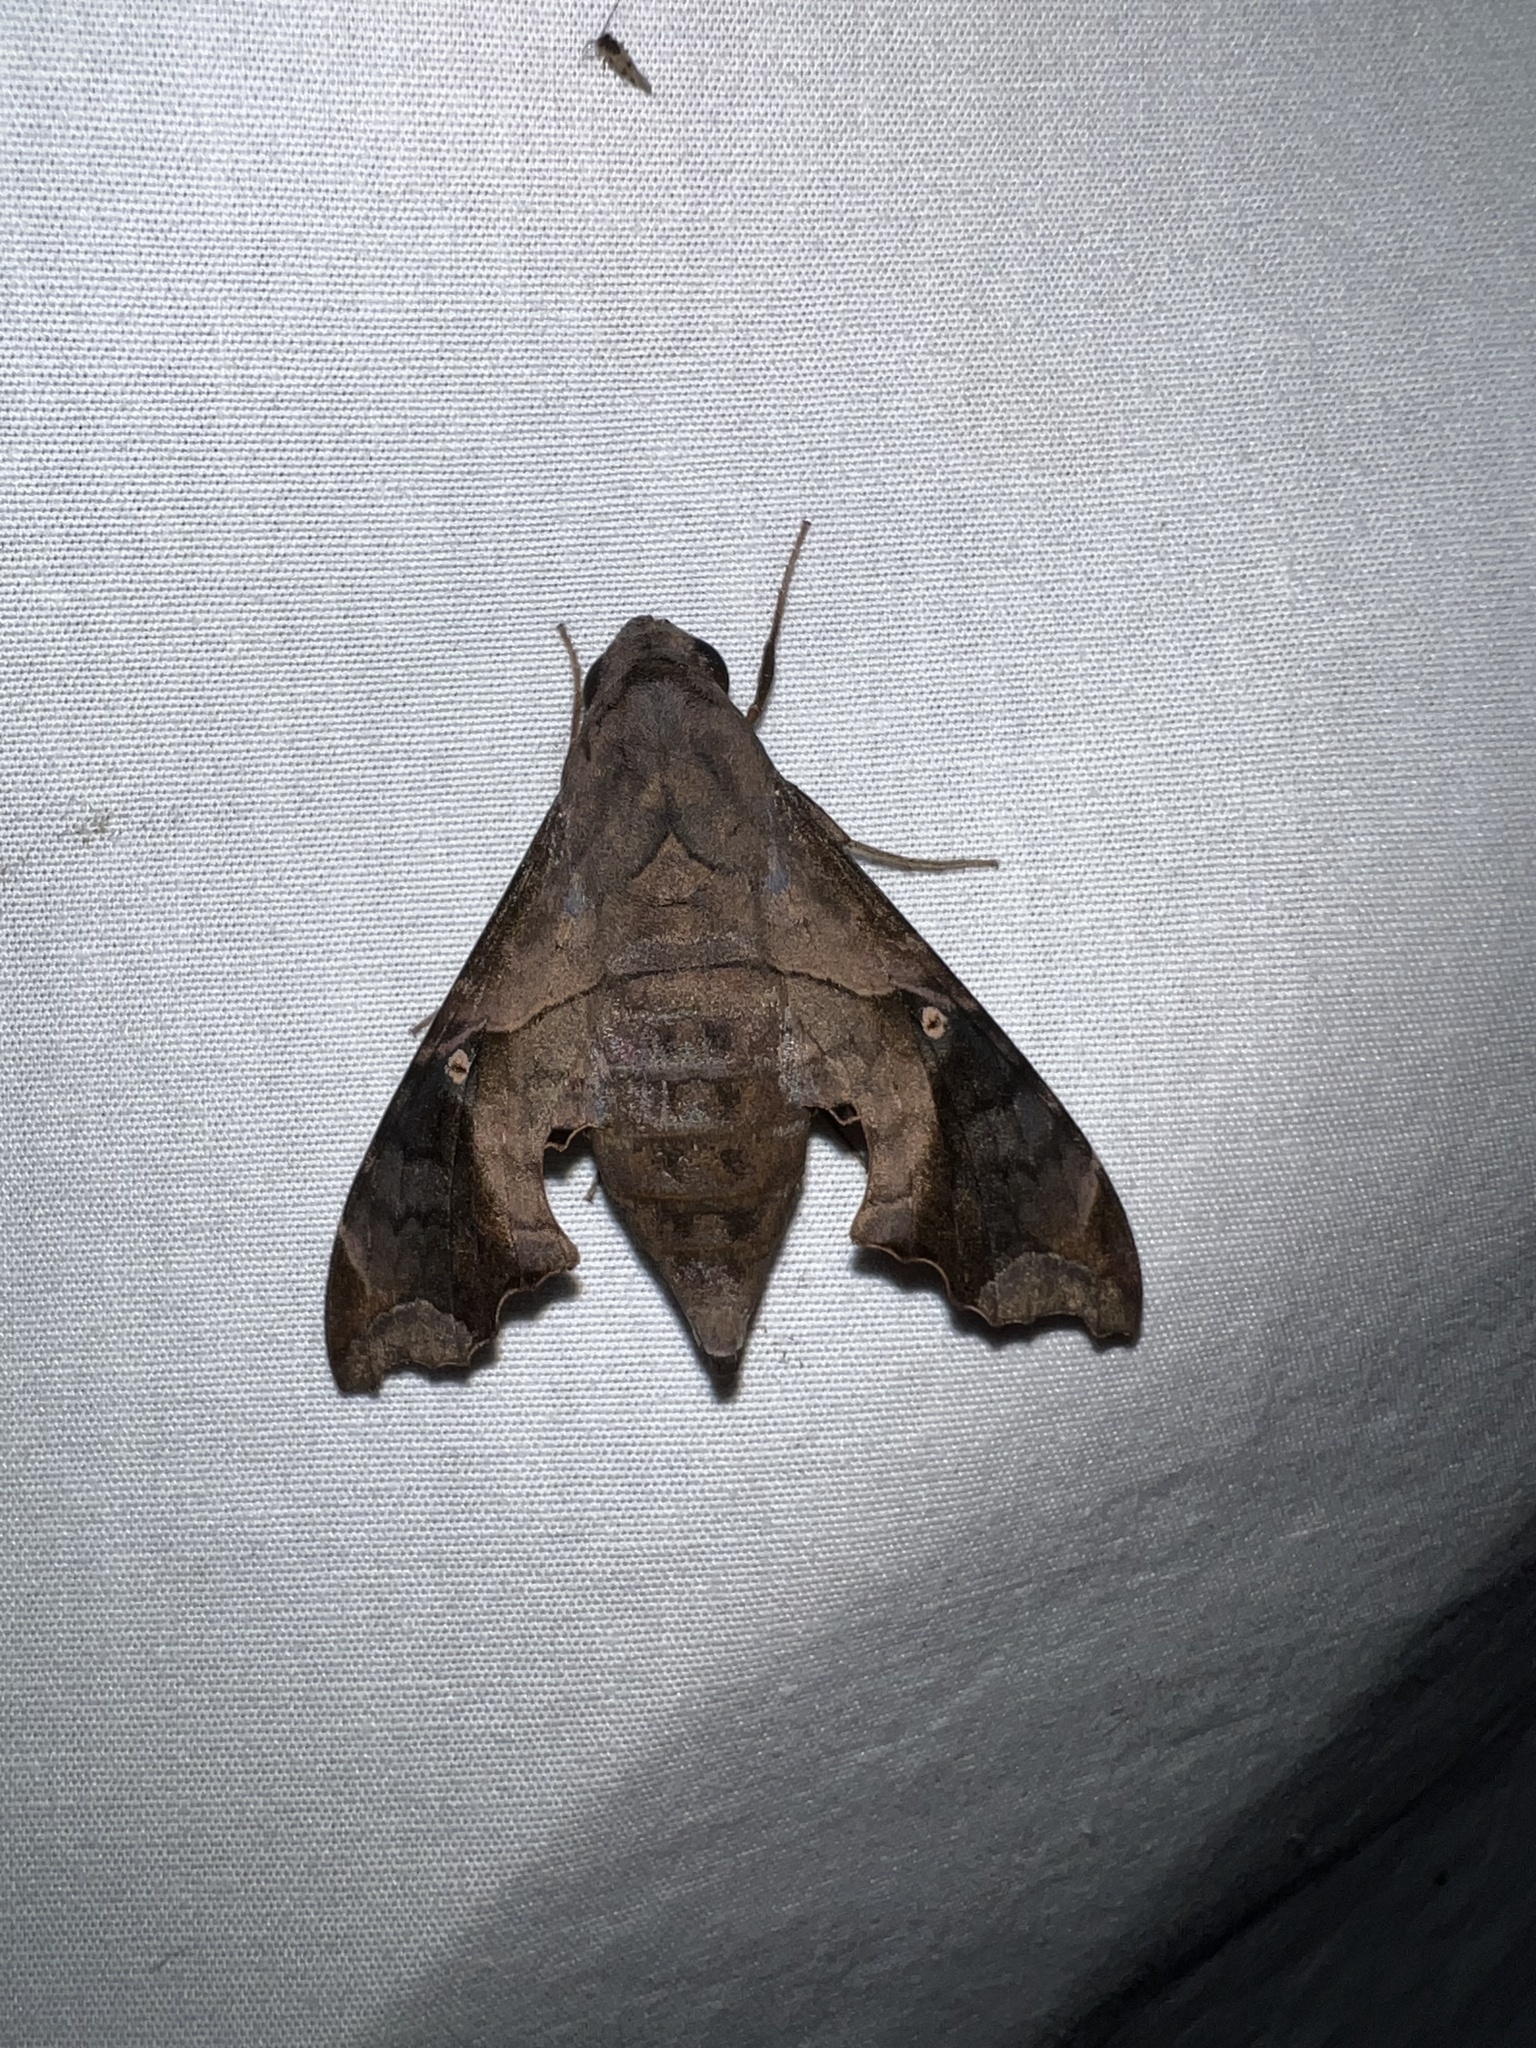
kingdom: Animalia
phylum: Arthropoda
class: Insecta
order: Lepidoptera
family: Sphingidae
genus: Enyo
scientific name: Enyo lugubris
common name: Mournful sphinx
